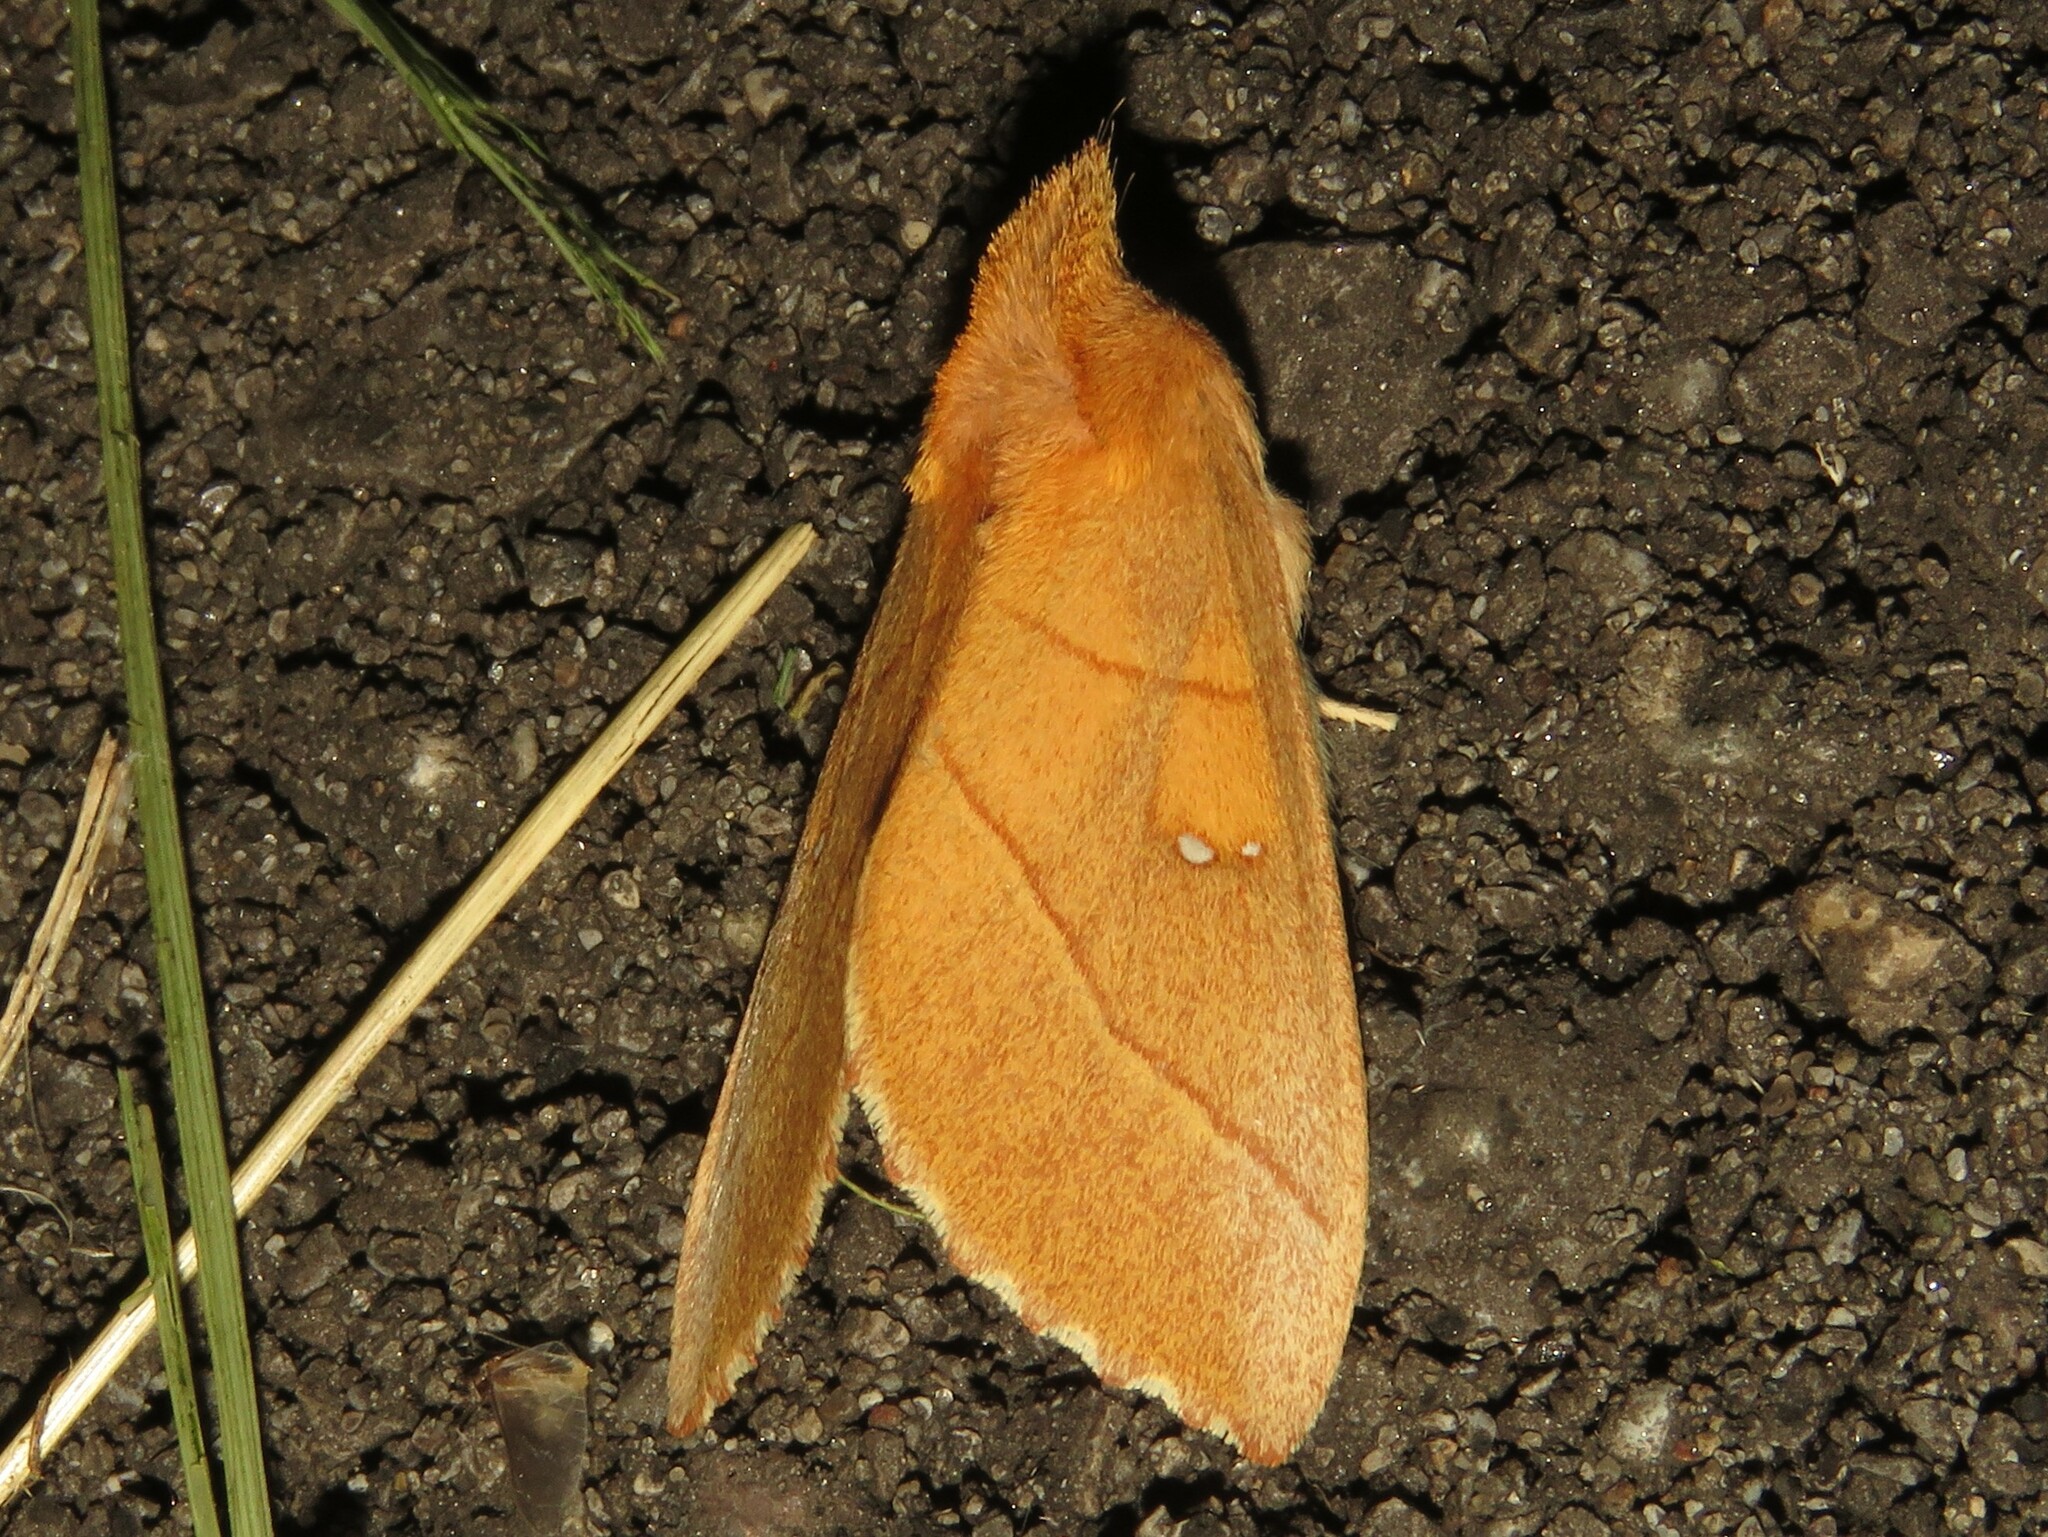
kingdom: Animalia
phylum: Arthropoda
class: Insecta
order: Lepidoptera
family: Notodontidae
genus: Nadata
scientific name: Nadata gibbosa
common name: White-dotted prominent
